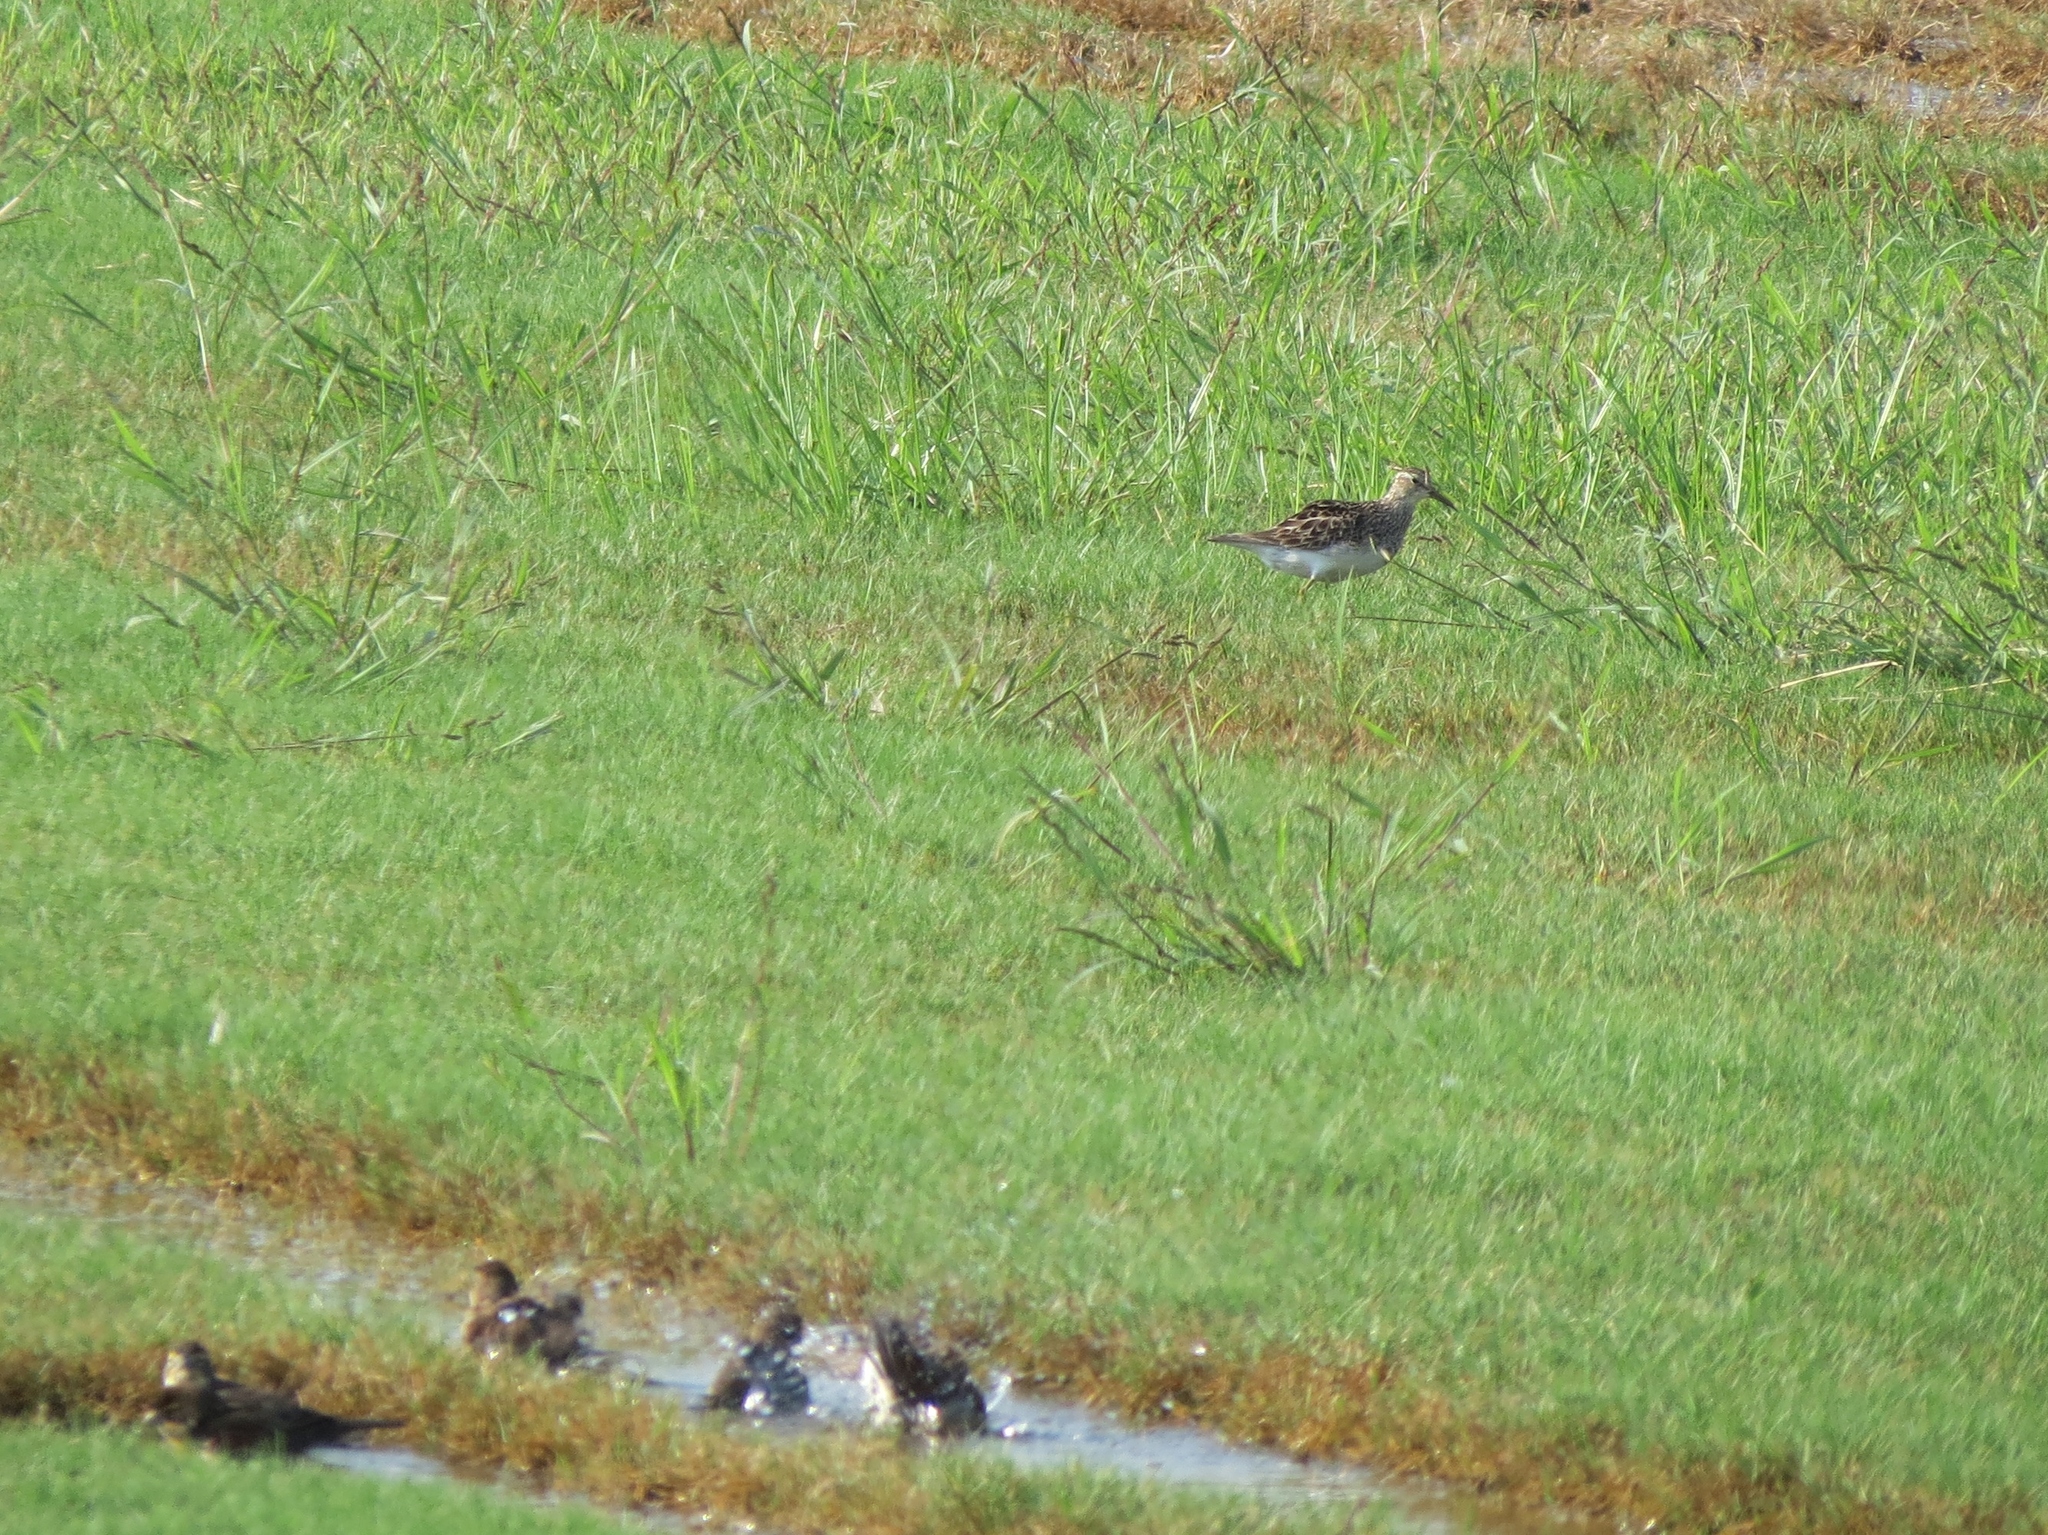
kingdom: Animalia
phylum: Chordata
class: Aves
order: Charadriiformes
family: Scolopacidae
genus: Calidris
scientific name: Calidris melanotos
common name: Pectoral sandpiper
